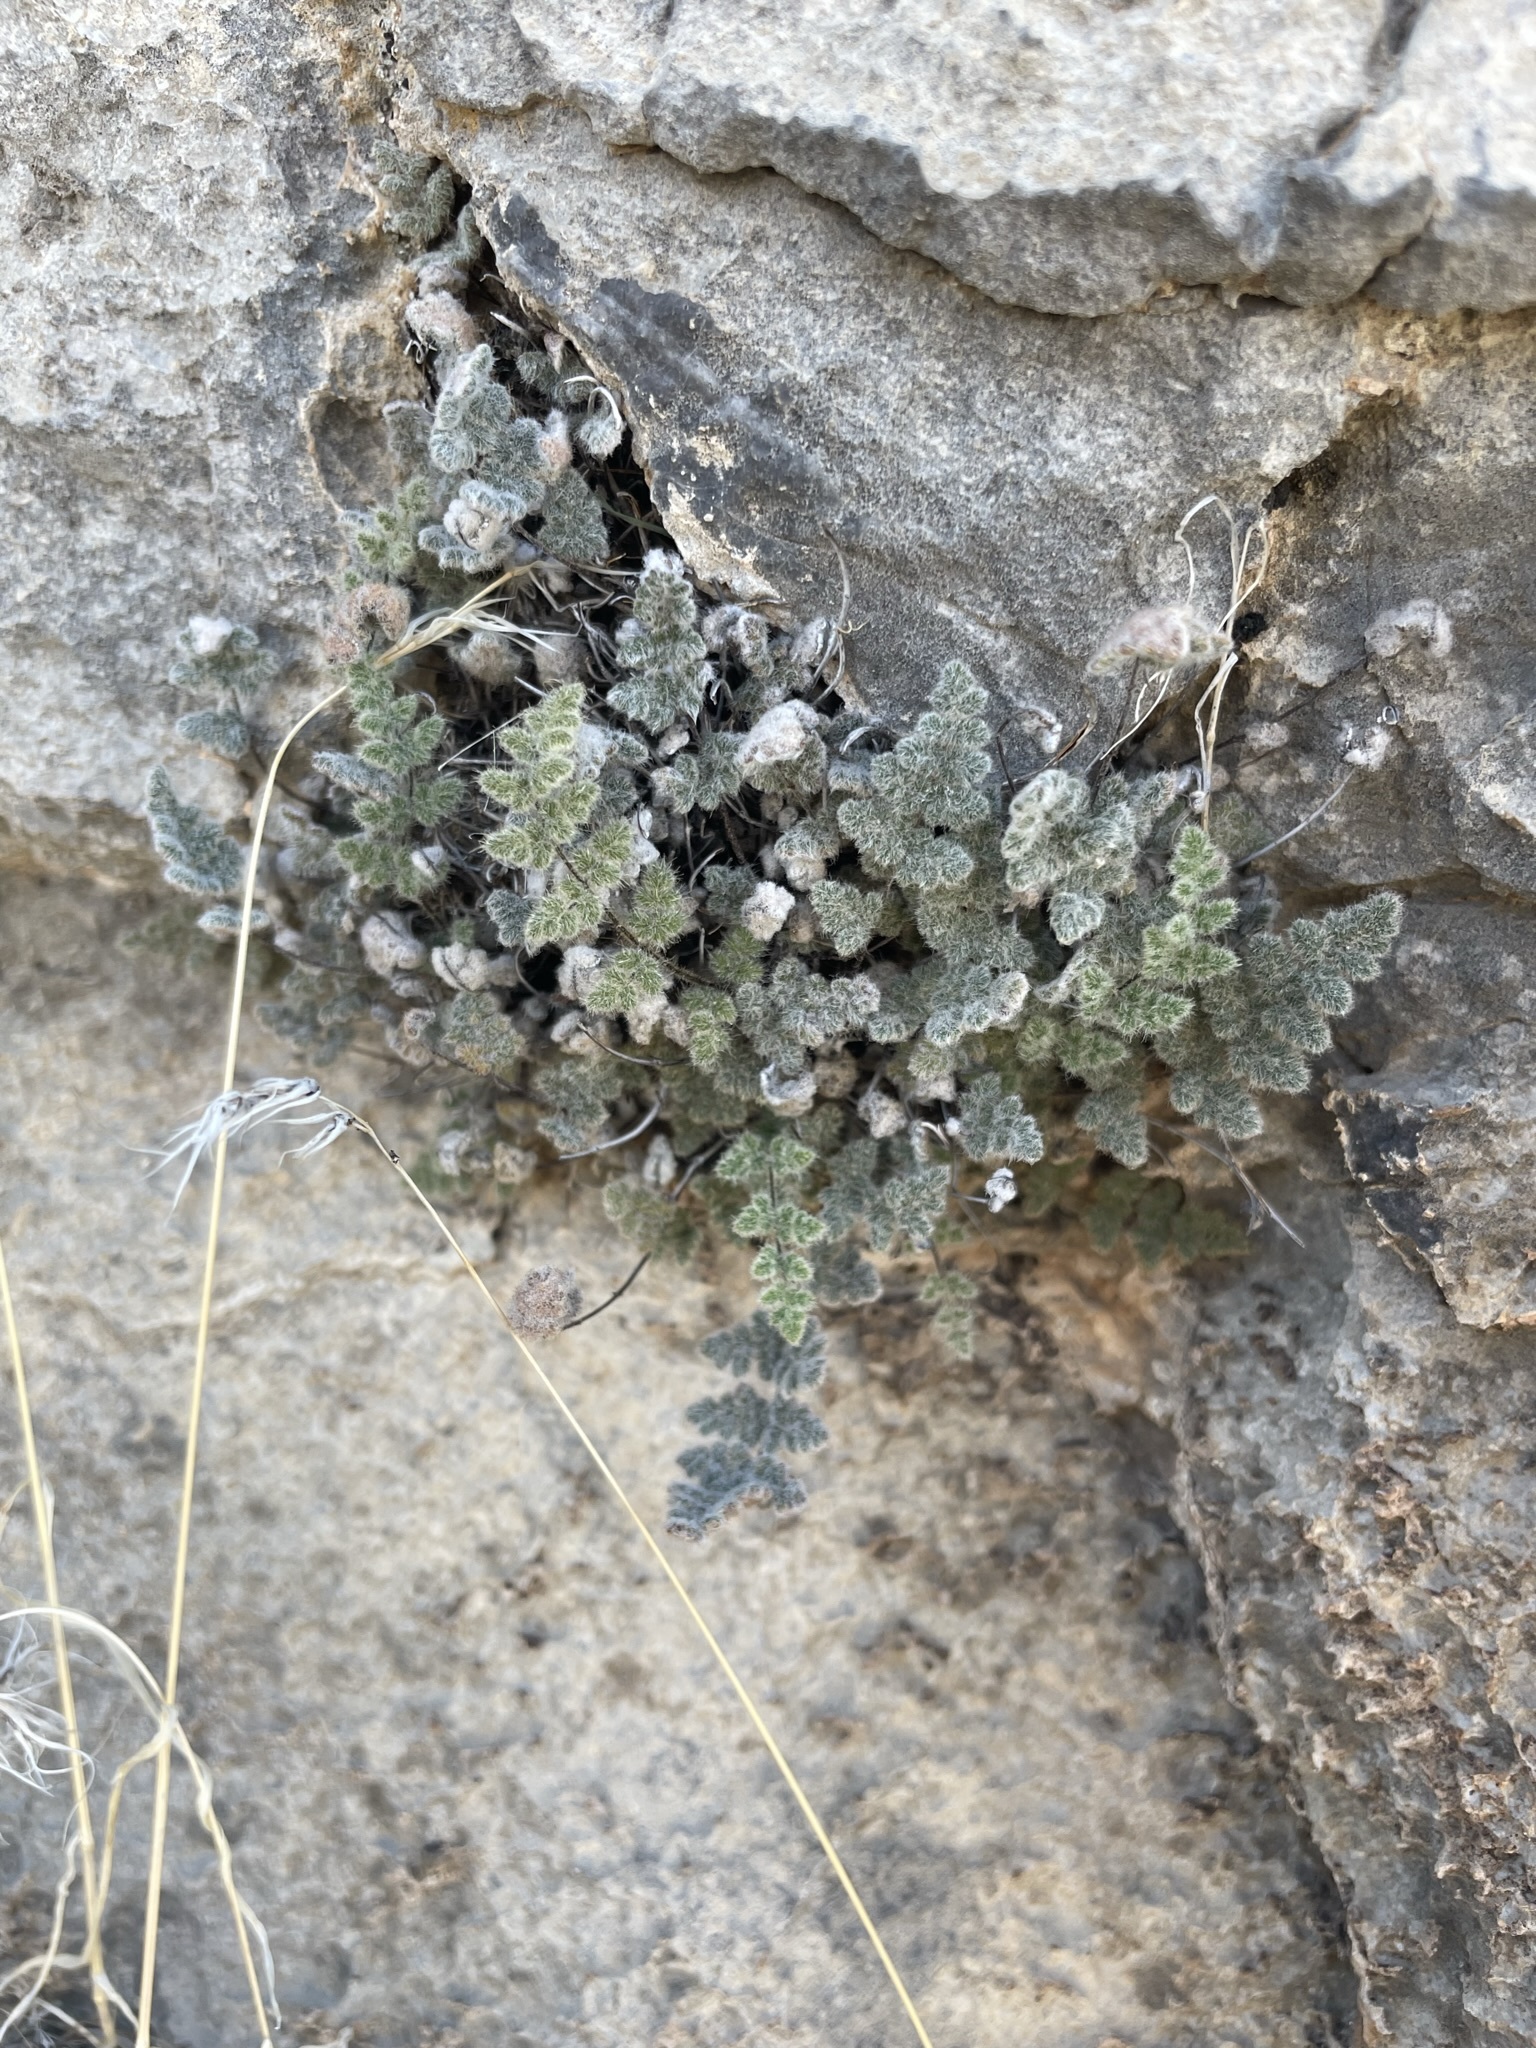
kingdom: Plantae
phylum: Tracheophyta
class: Polypodiopsida
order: Polypodiales
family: Pteridaceae
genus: Myriopteris
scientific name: Myriopteris parryi
